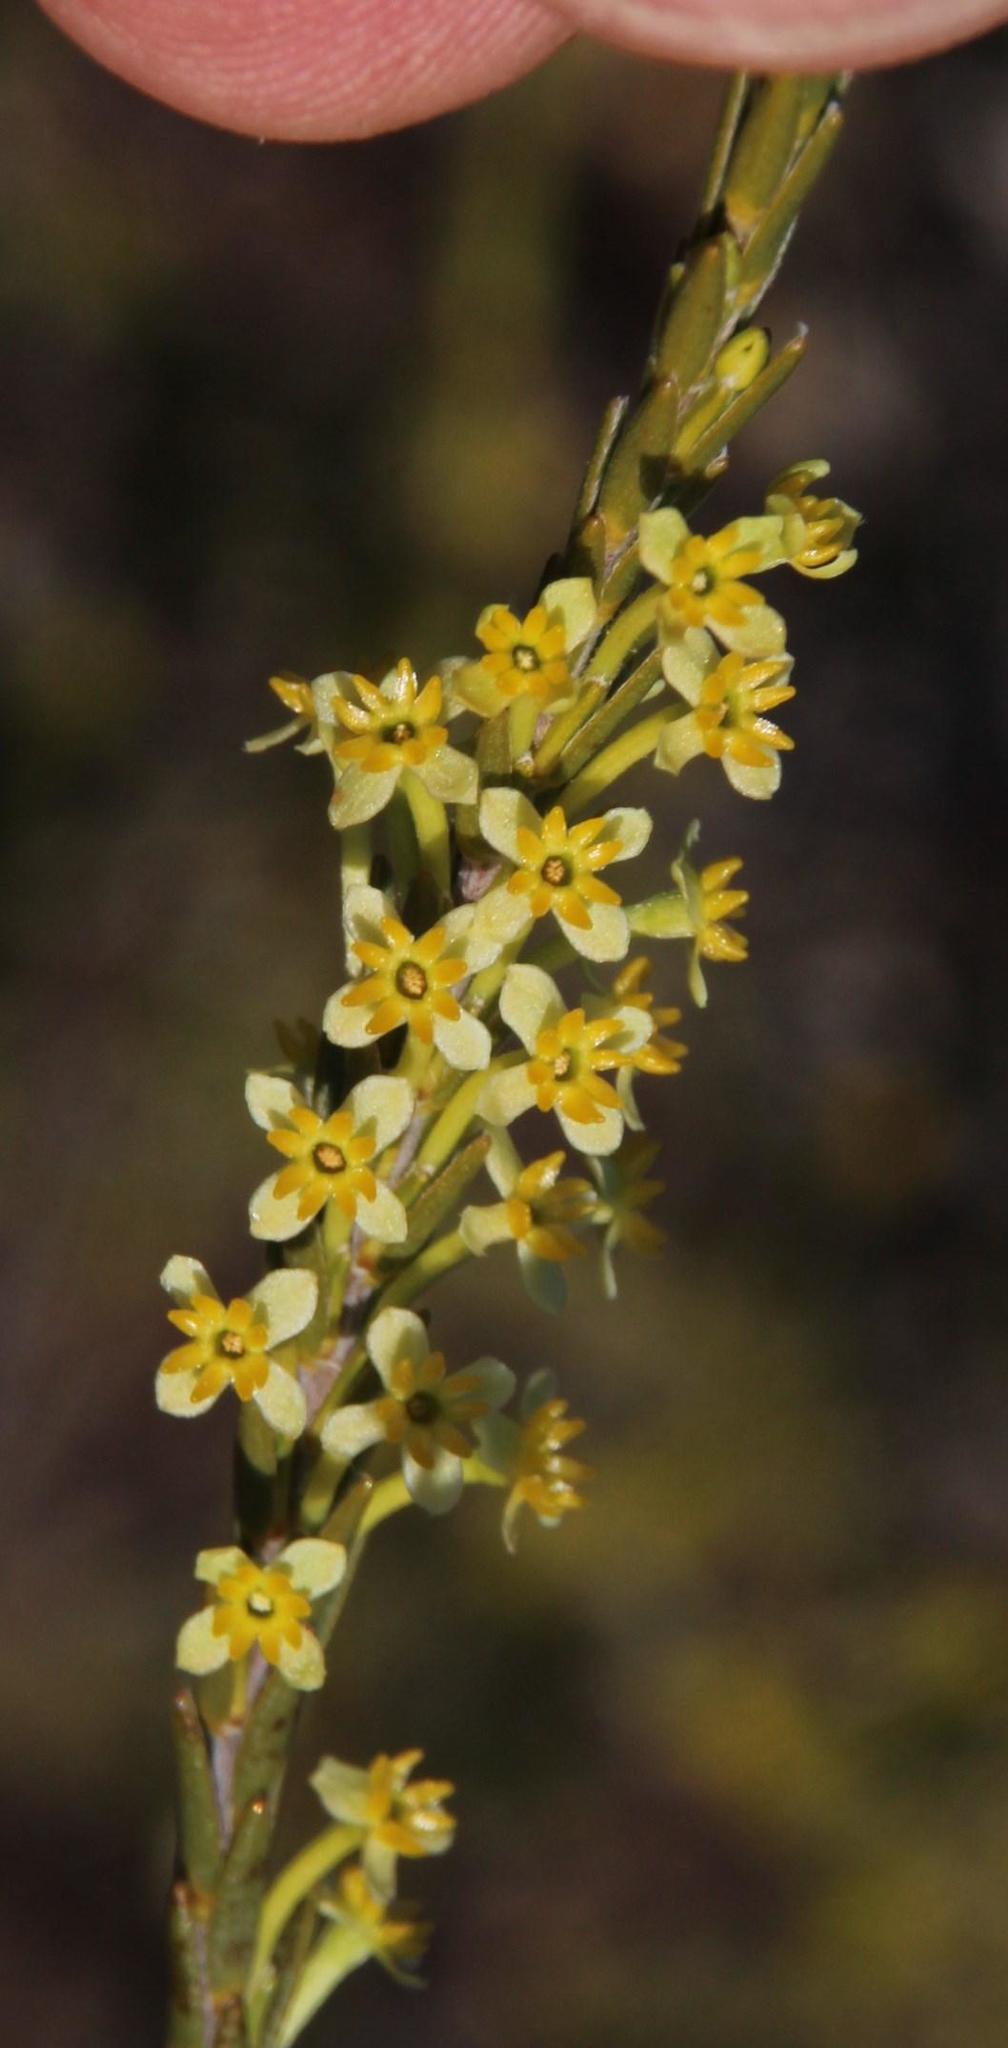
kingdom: Plantae
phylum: Tracheophyta
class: Magnoliopsida
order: Malvales
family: Thymelaeaceae
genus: Struthiola
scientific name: Struthiola eckloniana
